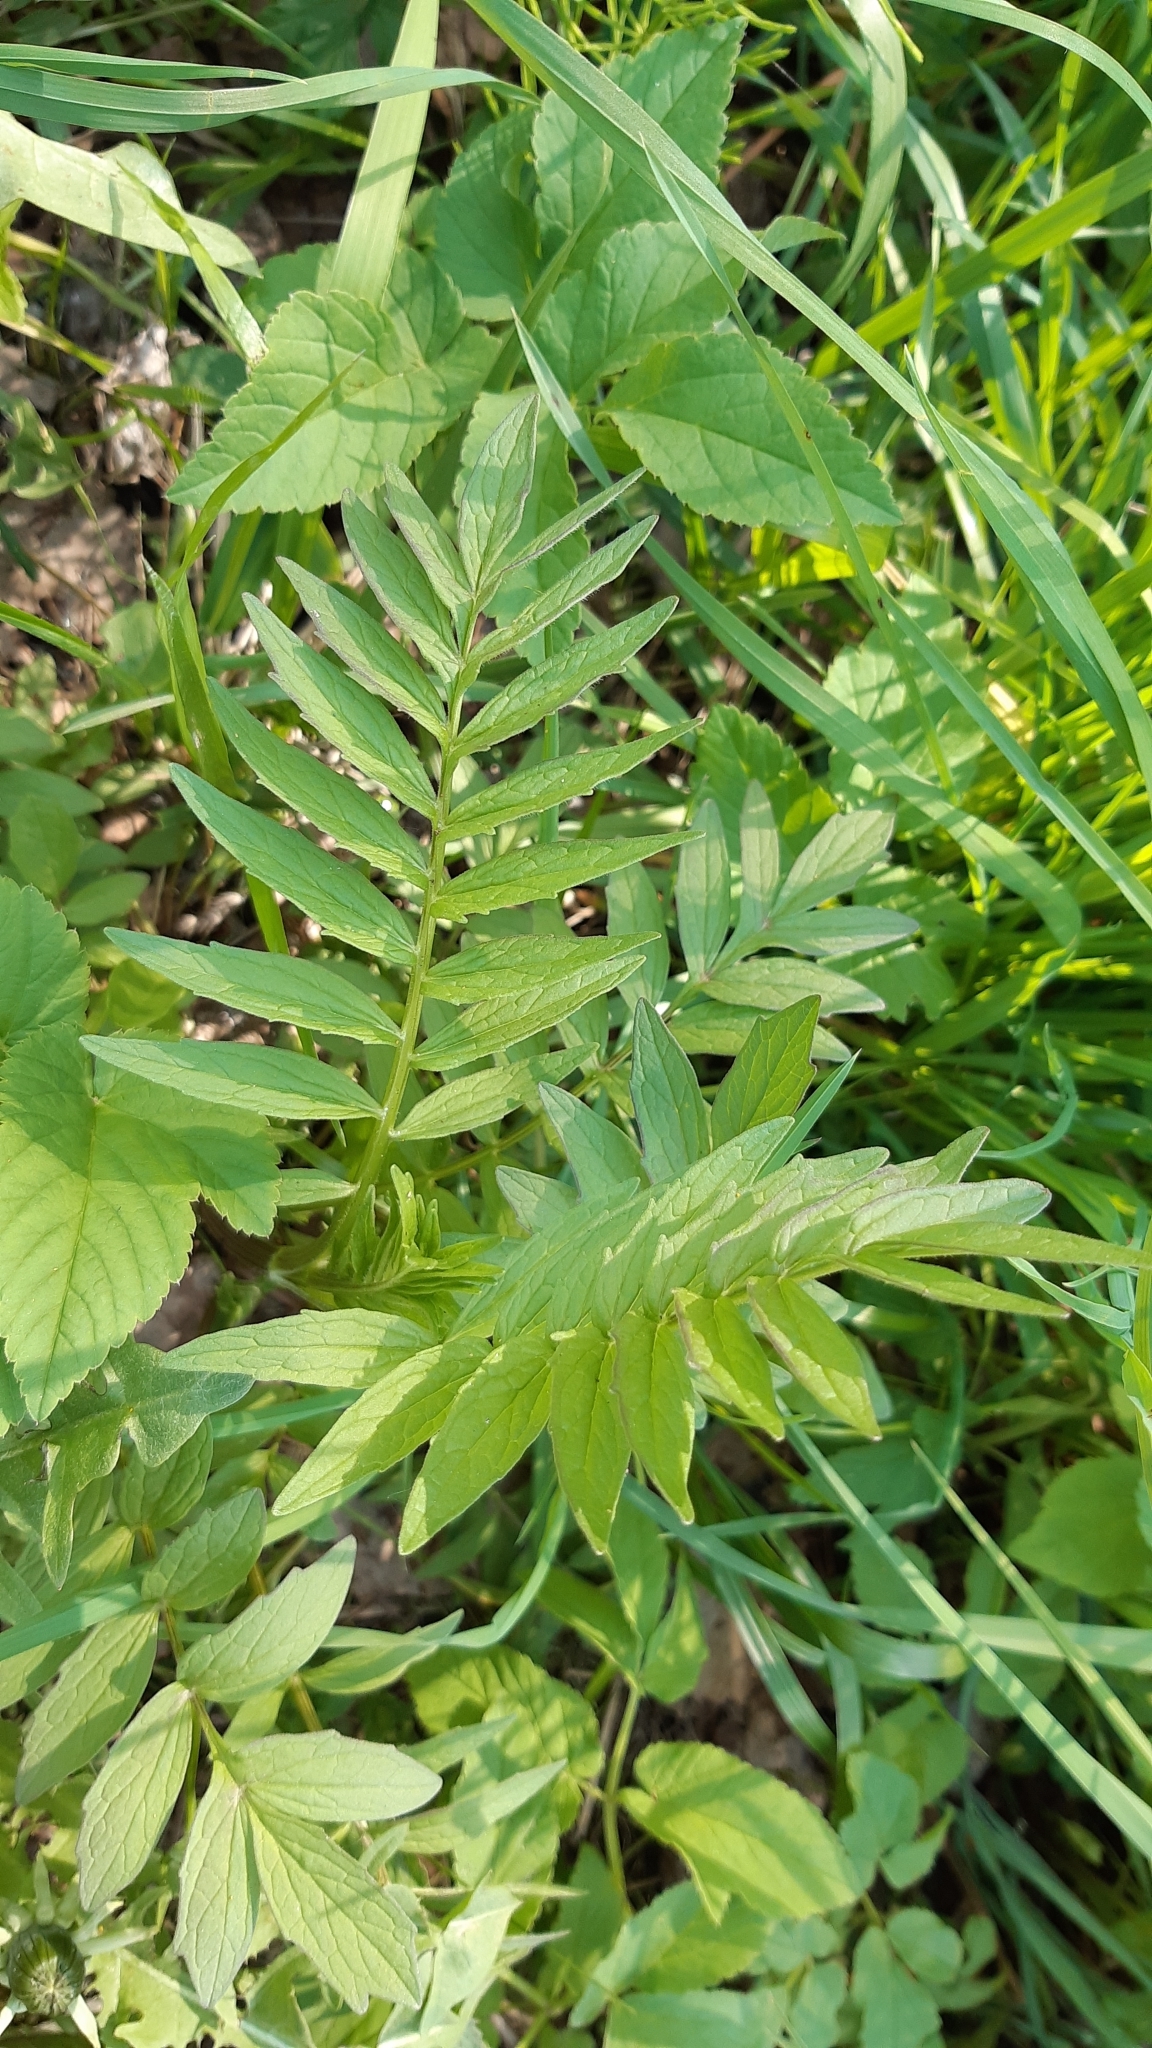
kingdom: Plantae
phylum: Tracheophyta
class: Magnoliopsida
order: Dipsacales
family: Caprifoliaceae
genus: Valeriana
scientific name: Valeriana officinalis
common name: Common valerian
